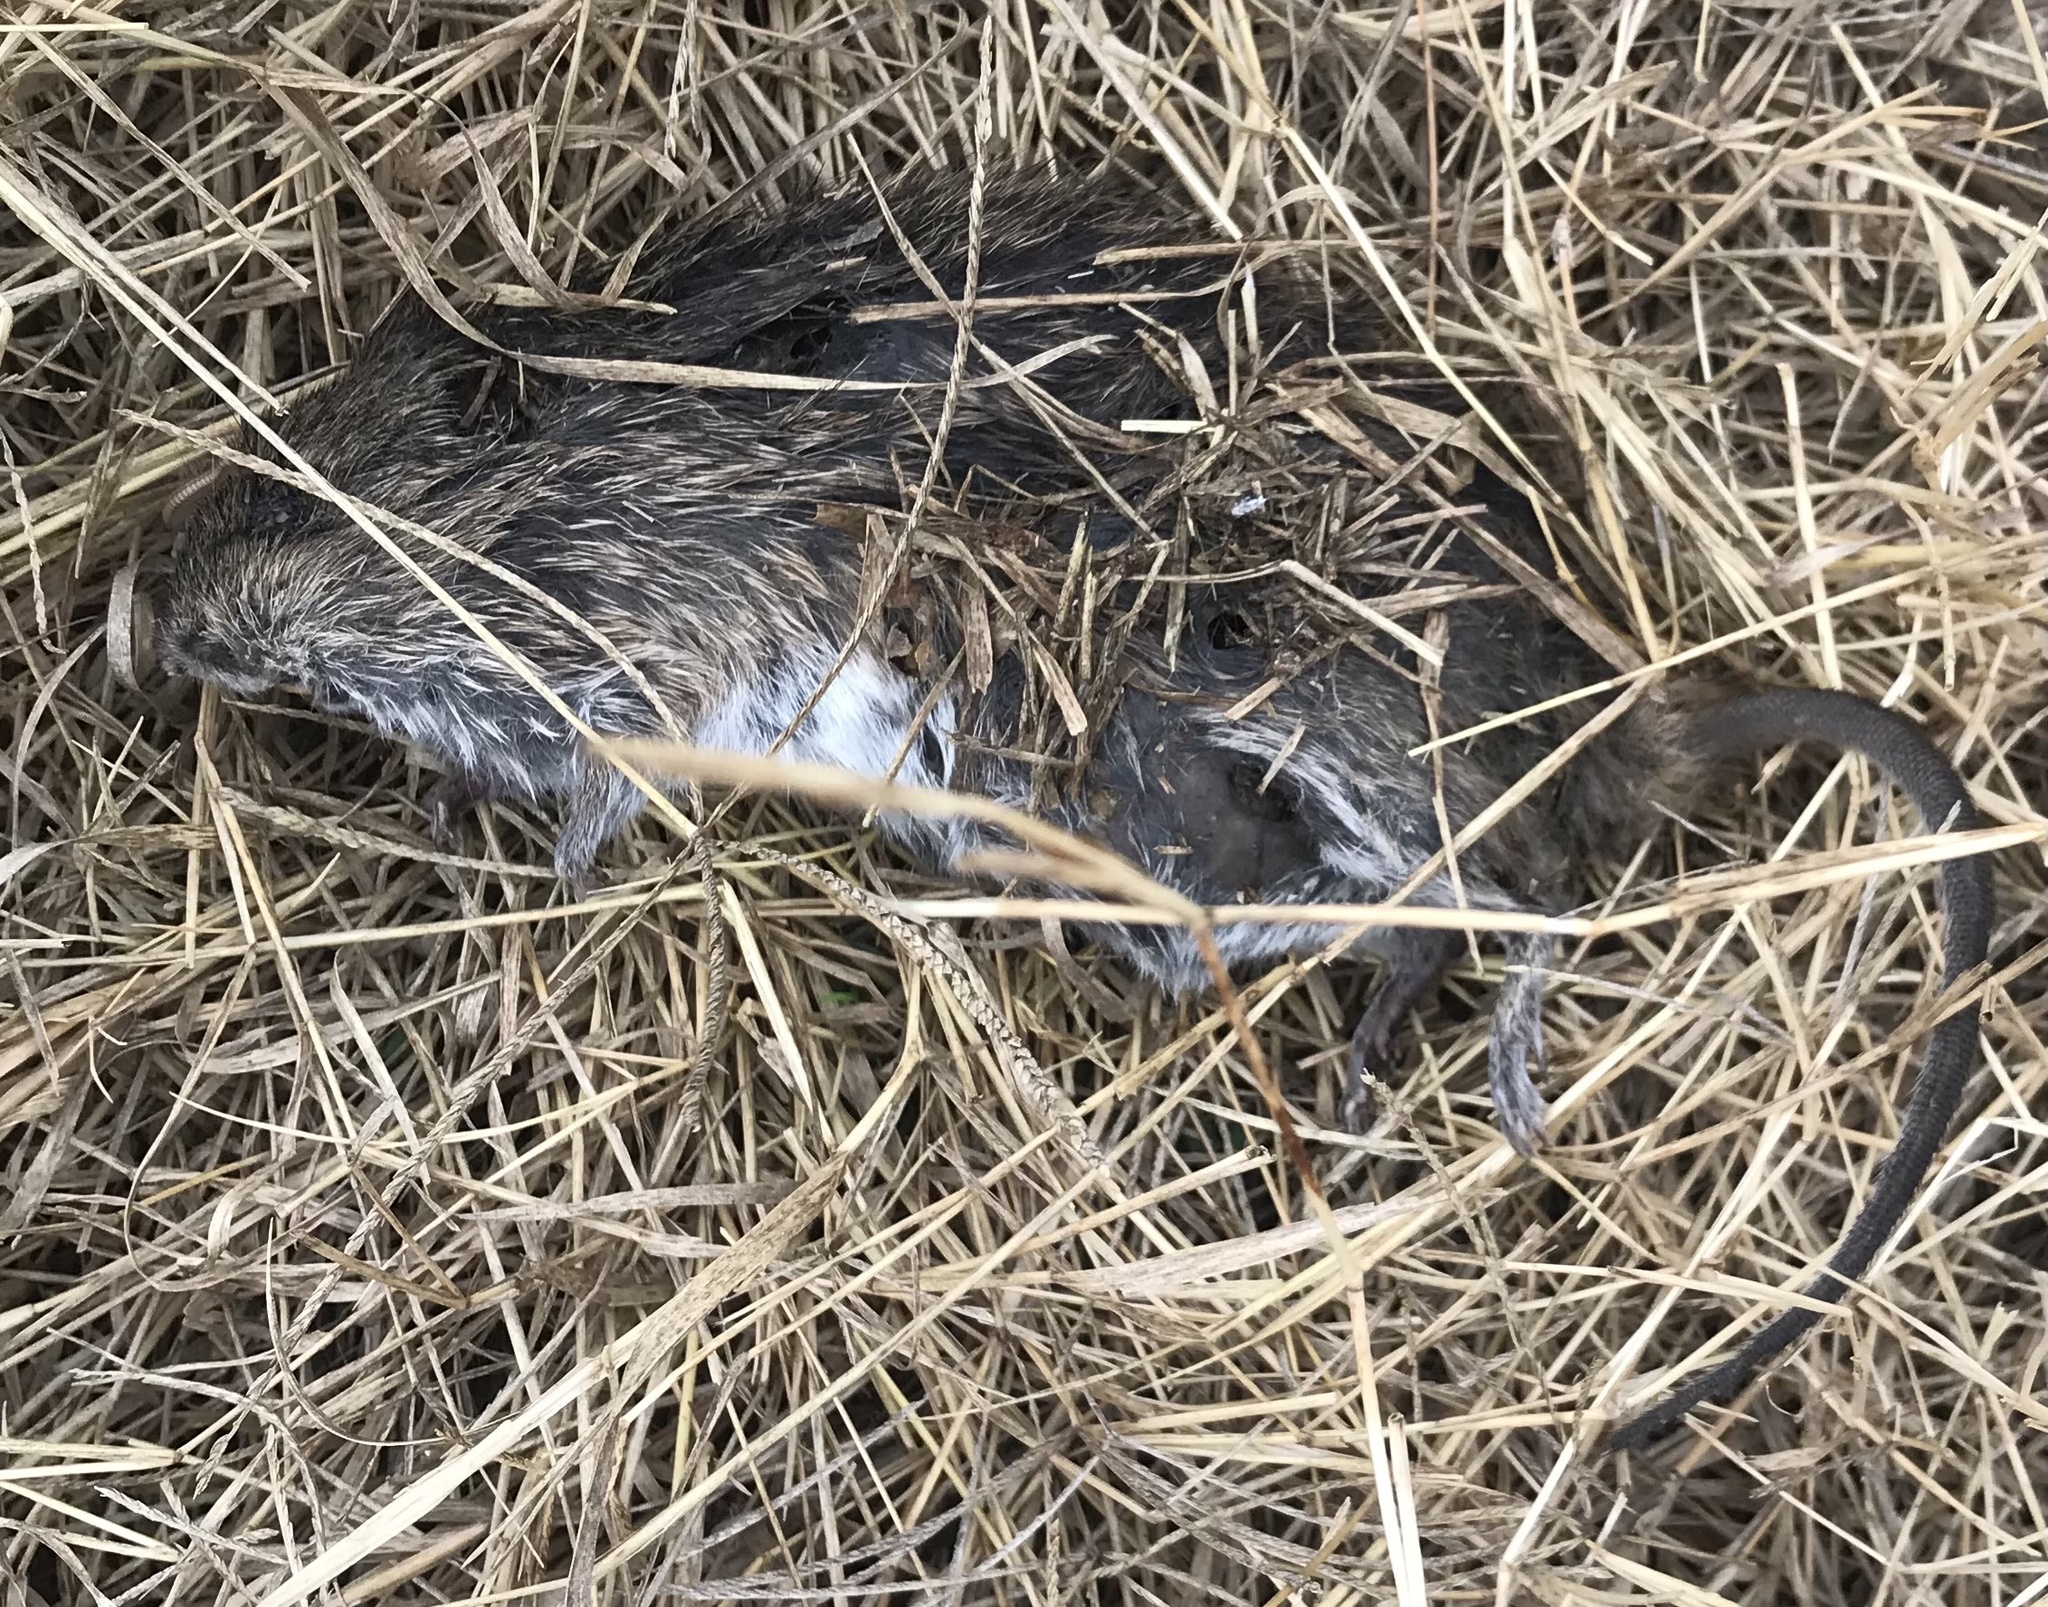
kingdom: Animalia
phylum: Chordata
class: Mammalia
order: Rodentia
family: Cricetidae
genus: Sigmodon
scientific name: Sigmodon hispidus
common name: Hispid cotton rat
